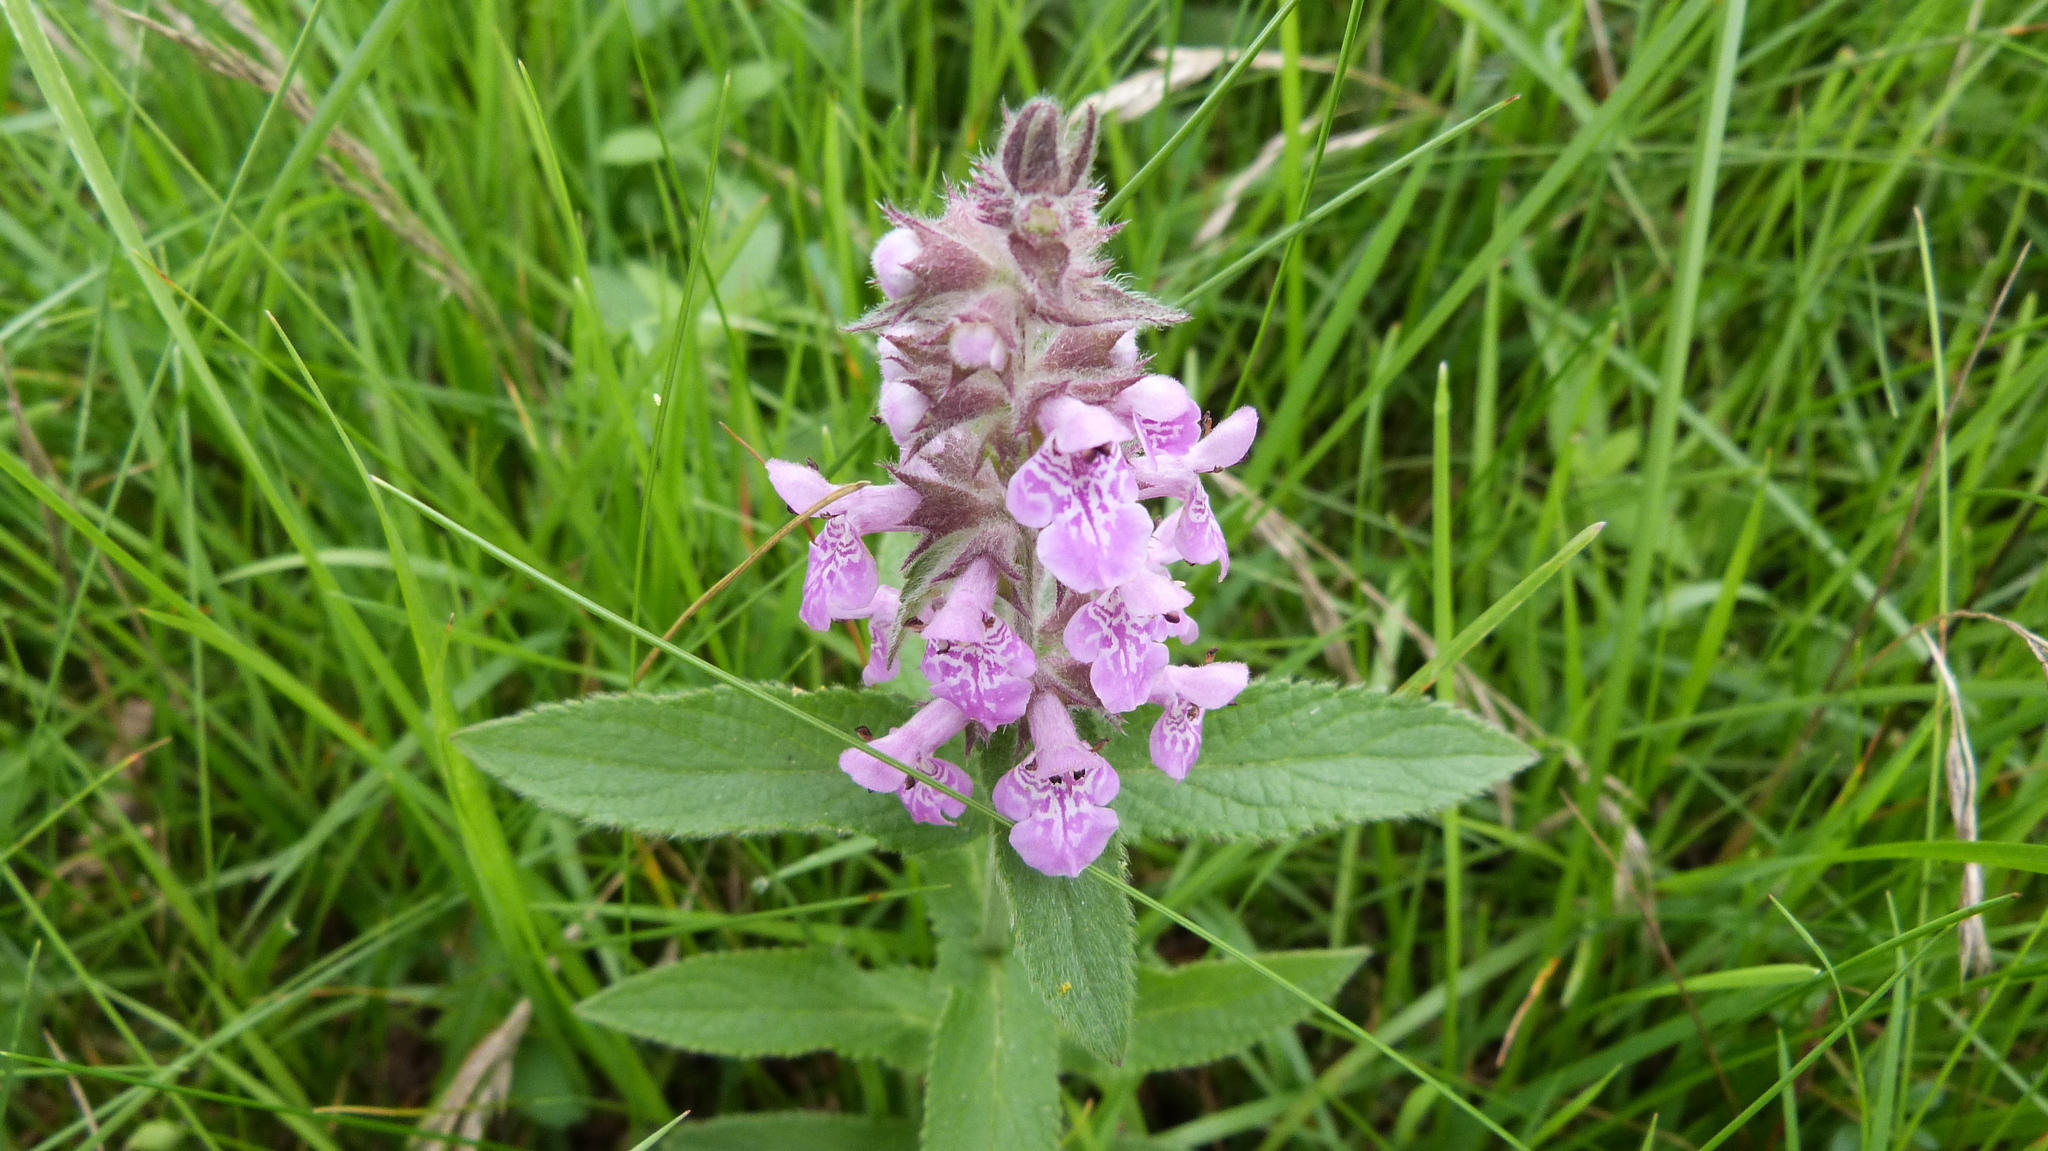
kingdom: Plantae
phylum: Tracheophyta
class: Magnoliopsida
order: Lamiales
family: Lamiaceae
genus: Stachys
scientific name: Stachys palustris
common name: Marsh woundwort
